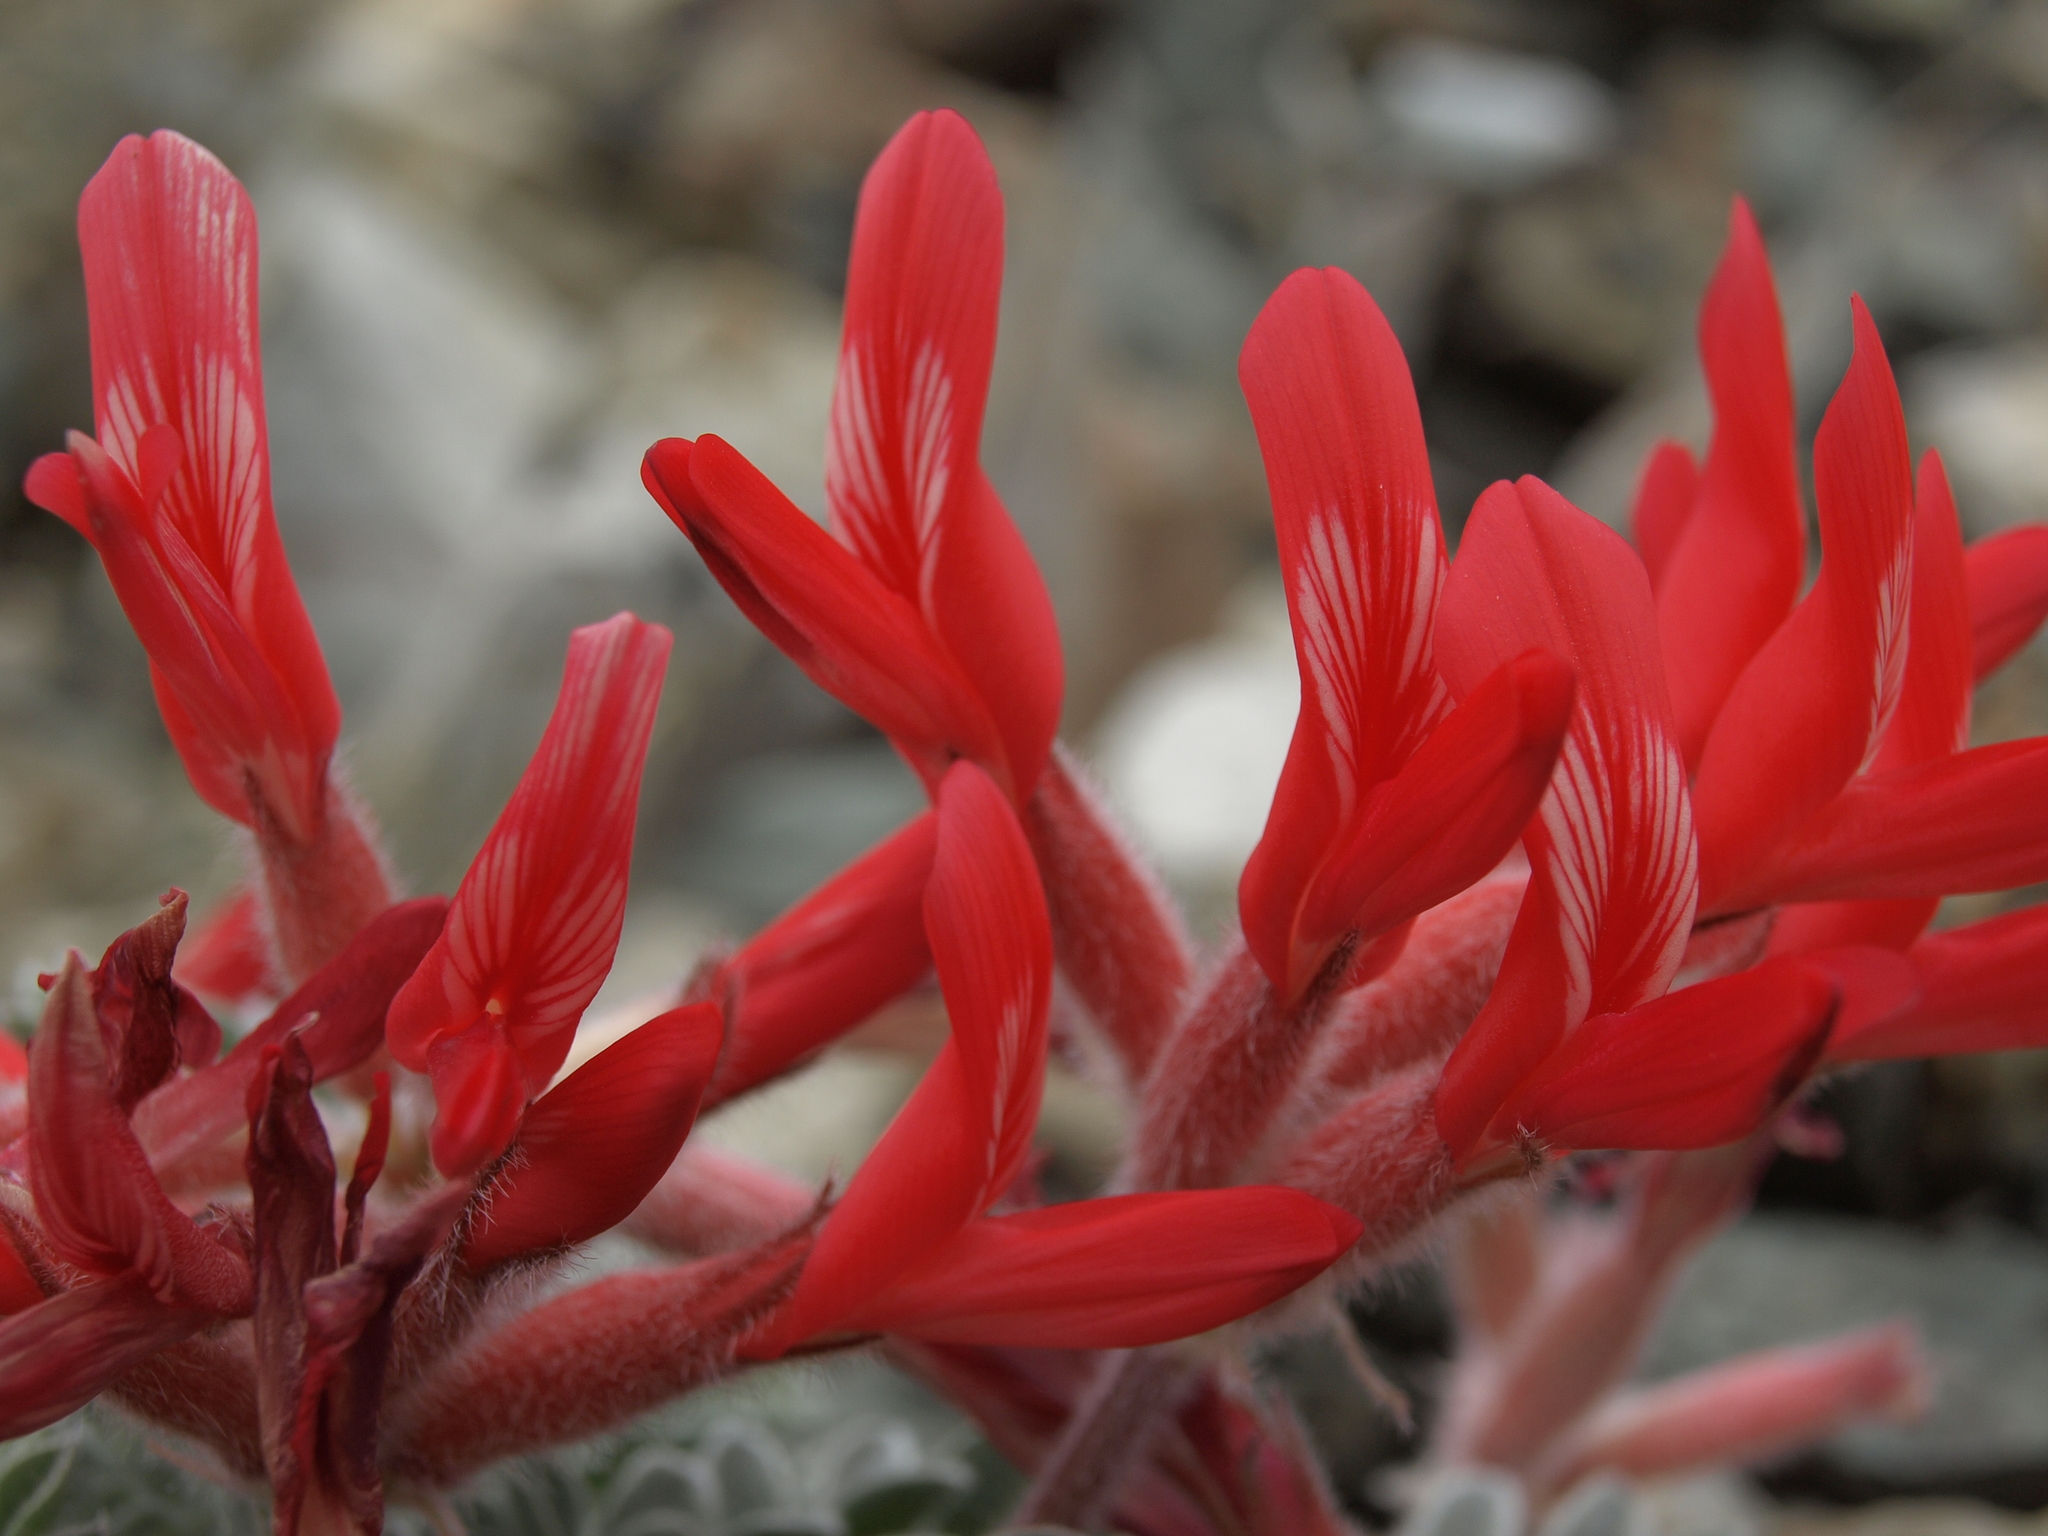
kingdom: Plantae
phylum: Tracheophyta
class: Magnoliopsida
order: Fabales
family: Fabaceae
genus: Astragalus
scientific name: Astragalus coccineus
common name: Scarlet milk-vetch
